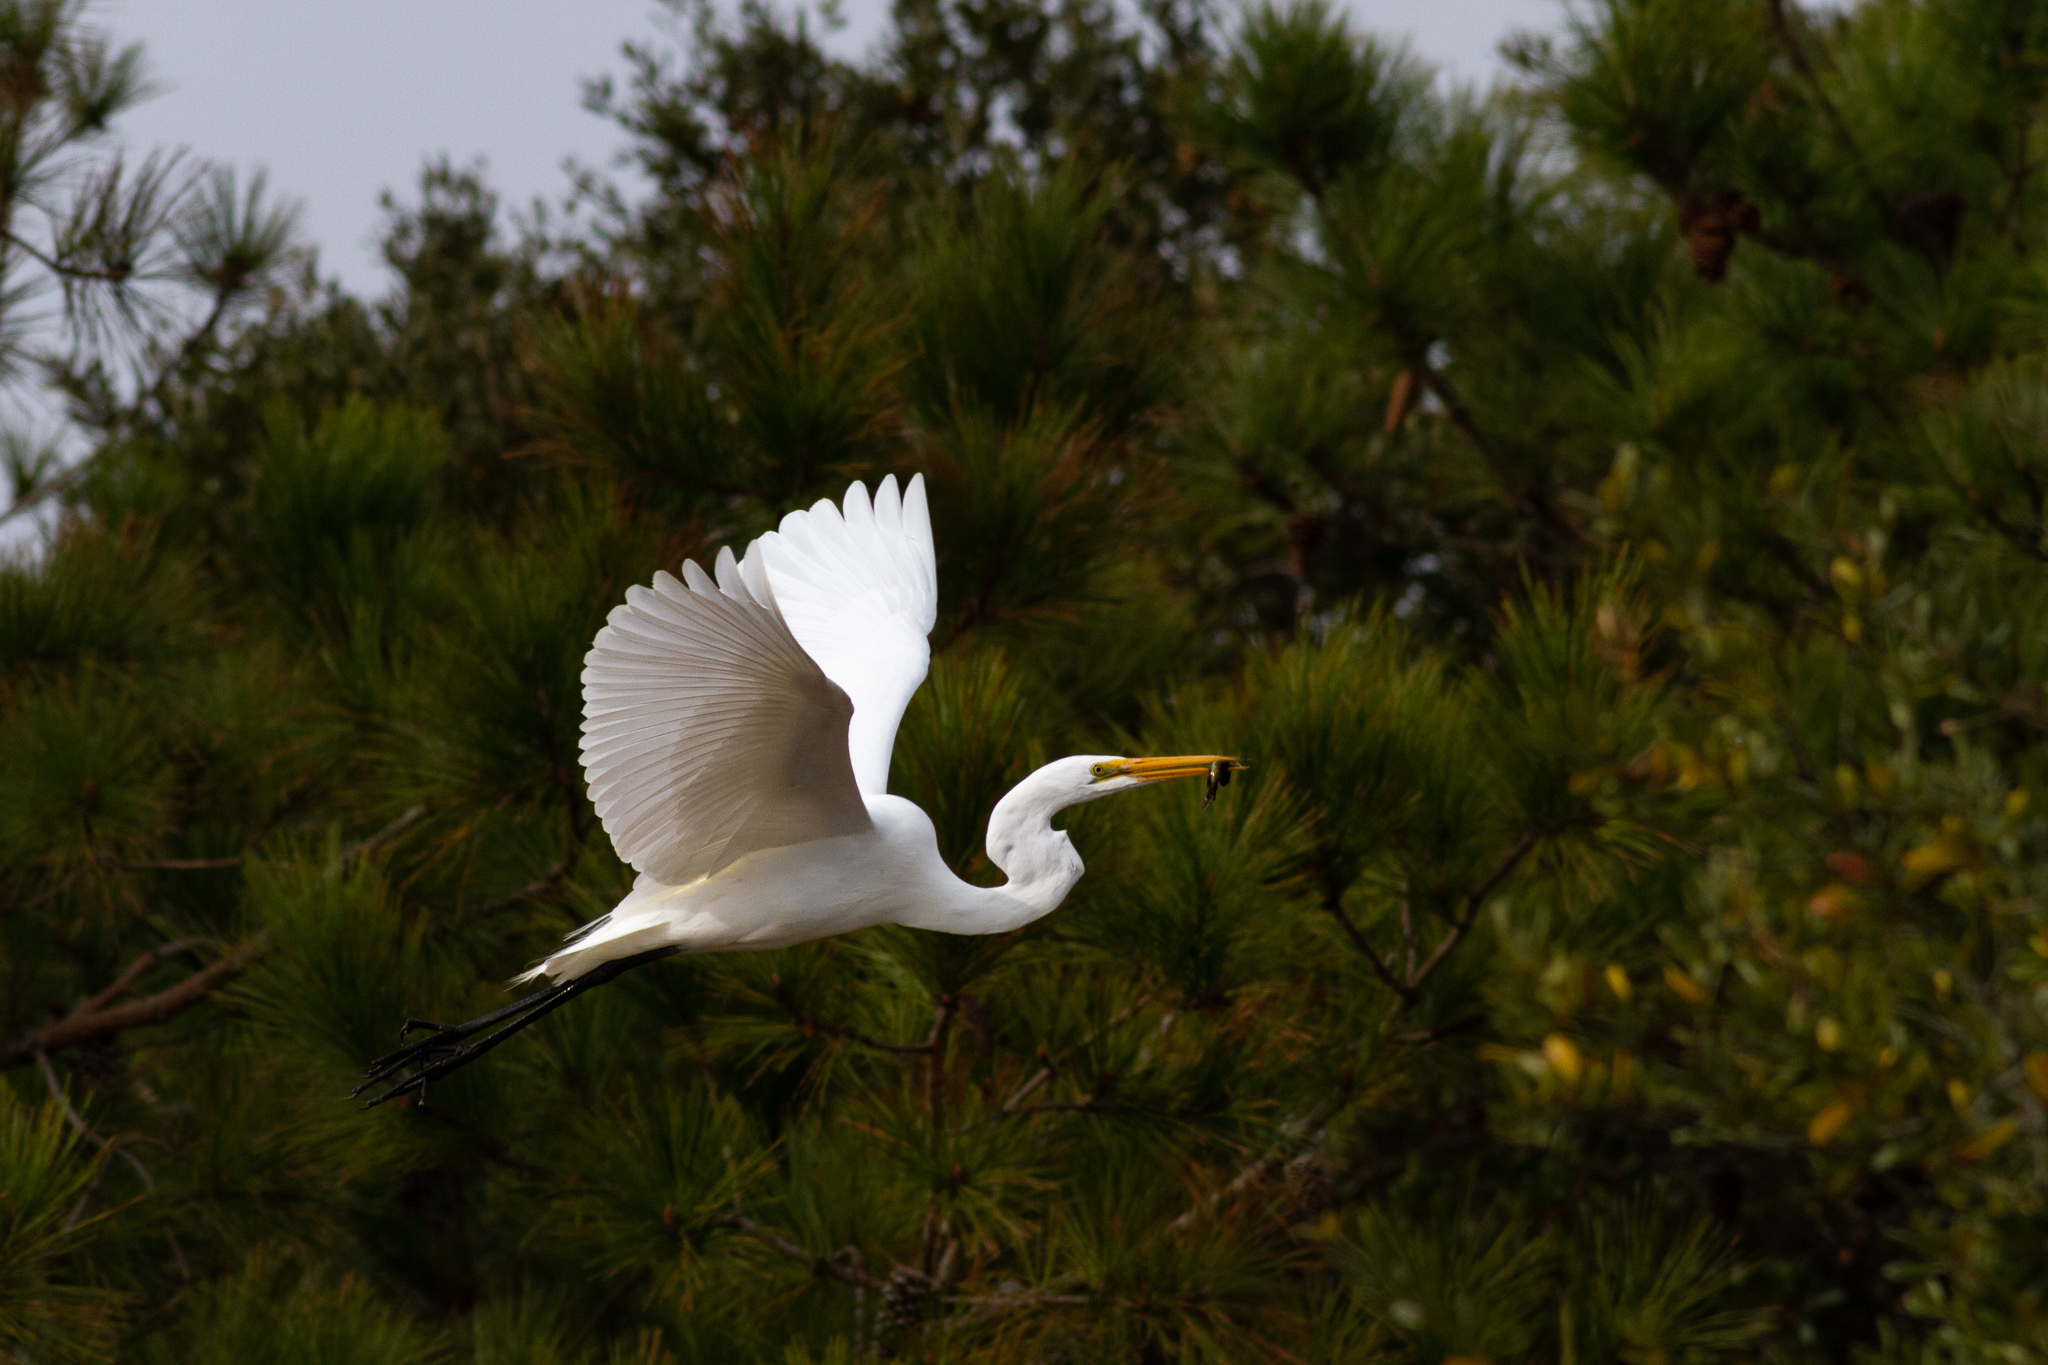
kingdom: Animalia
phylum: Chordata
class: Aves
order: Pelecaniformes
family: Ardeidae
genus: Ardea
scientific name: Ardea alba
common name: Great egret
